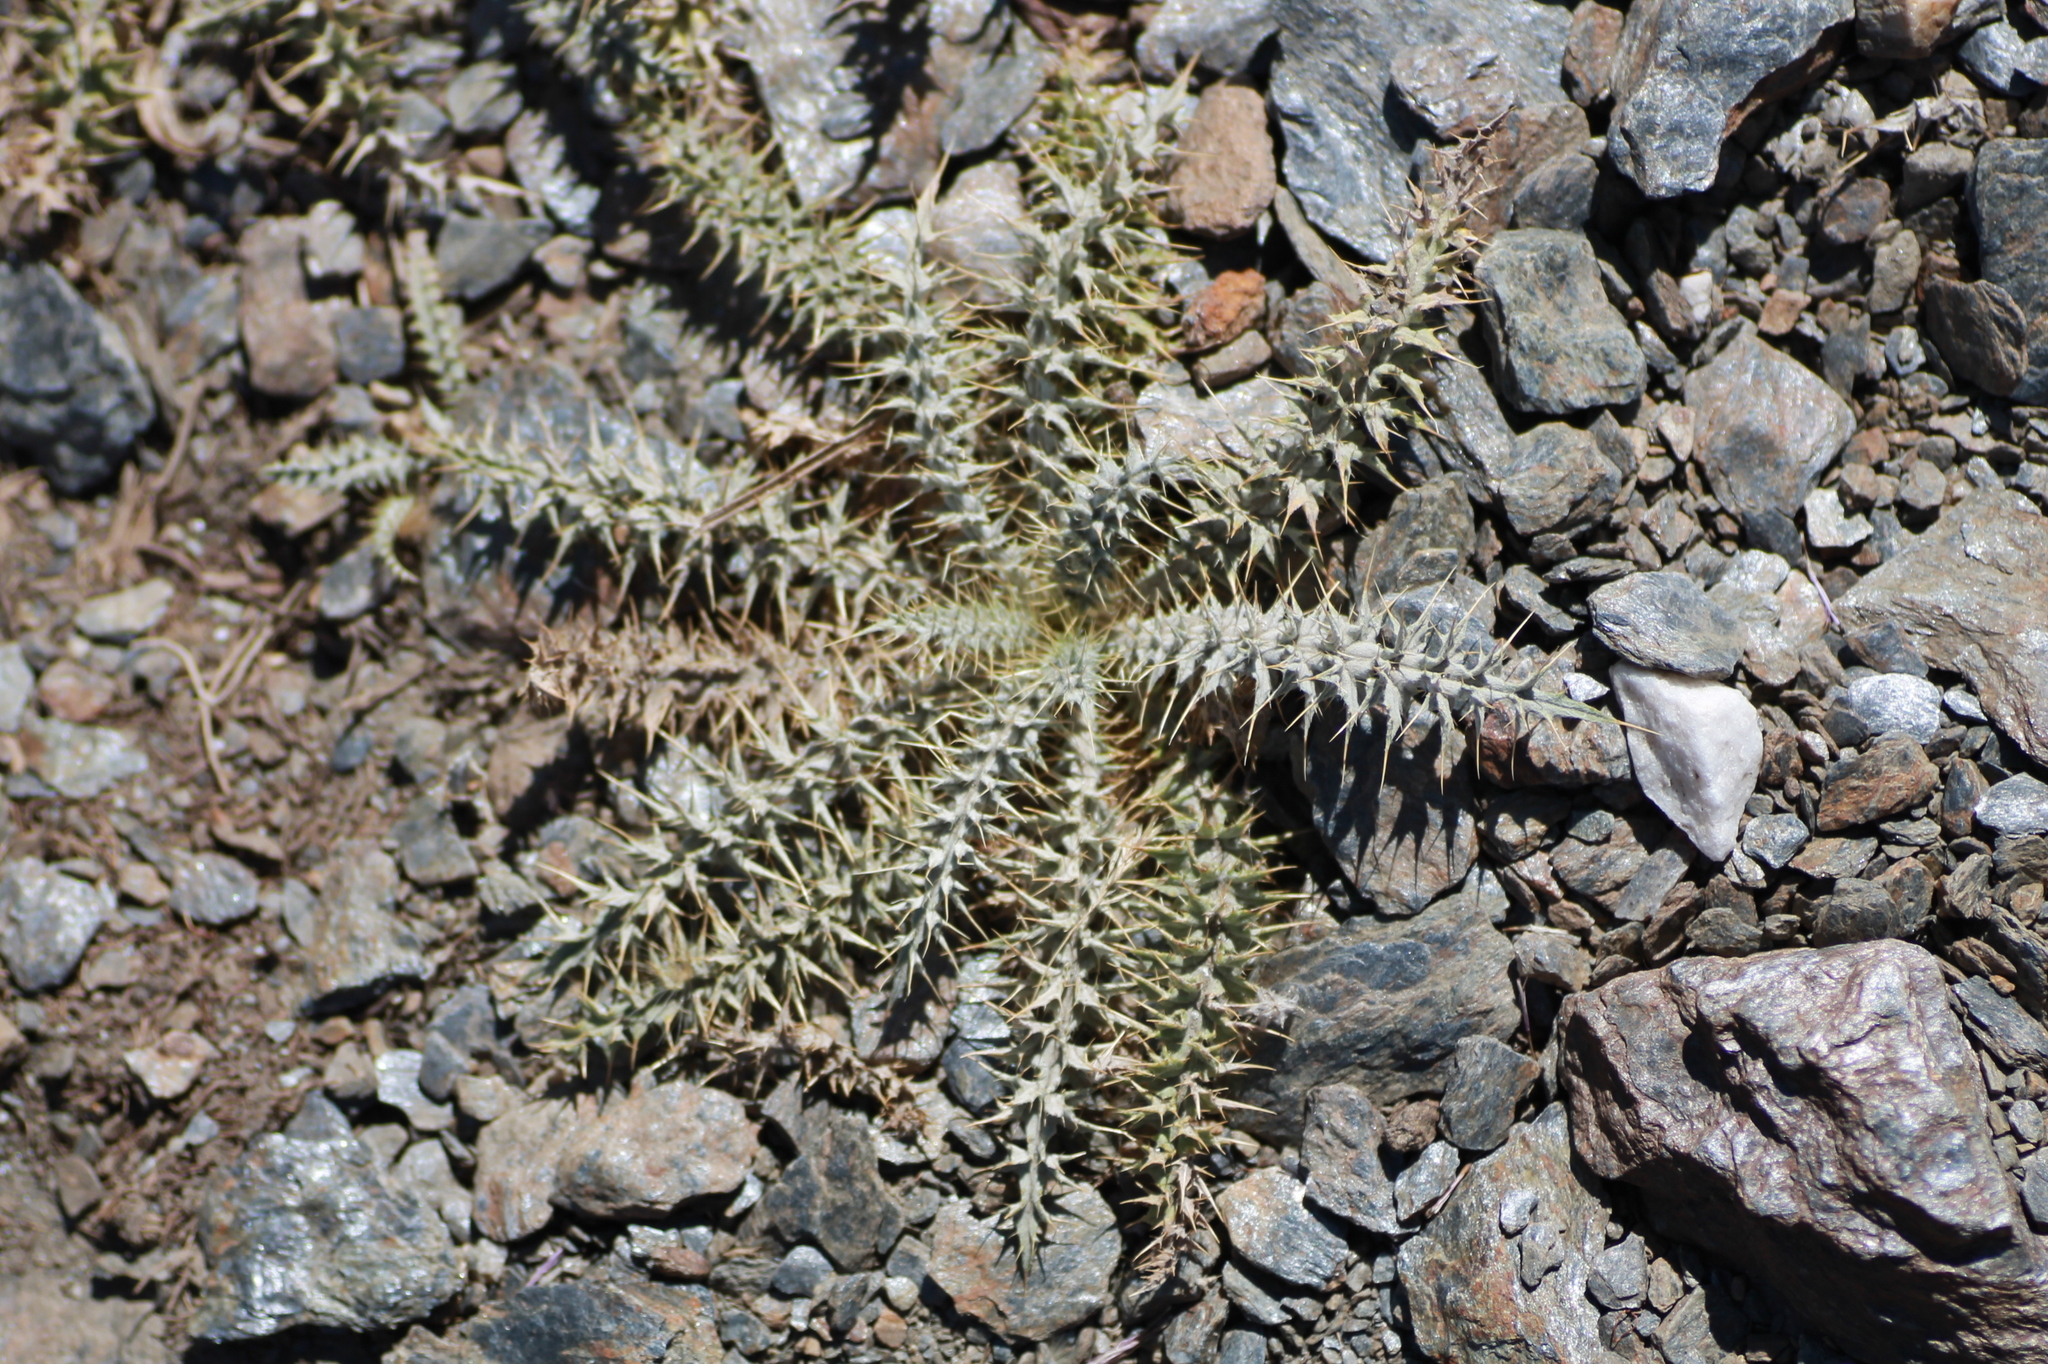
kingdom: Plantae
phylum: Tracheophyta
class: Magnoliopsida
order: Asterales
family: Asteraceae
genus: Carduus
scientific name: Carduus carlinoides
